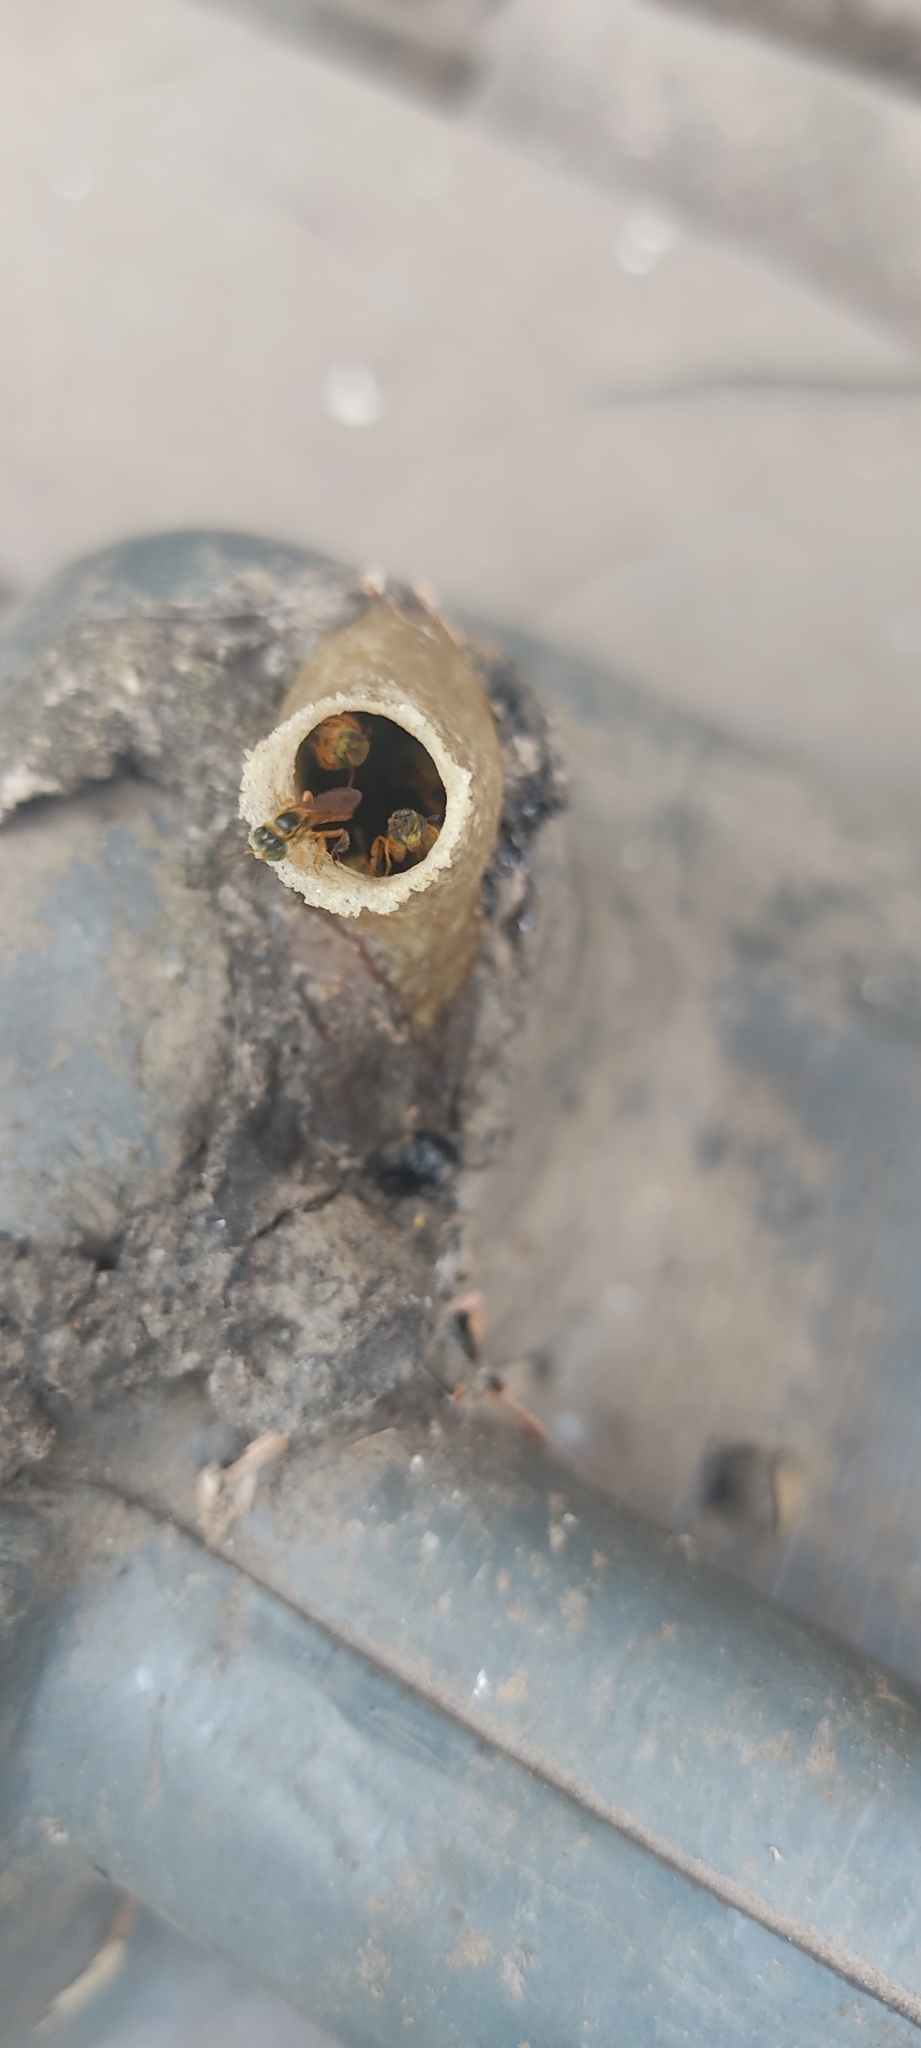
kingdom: Animalia
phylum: Arthropoda
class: Insecta
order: Hymenoptera
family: Apidae
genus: Tetragonisca
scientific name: Tetragonisca angustula
